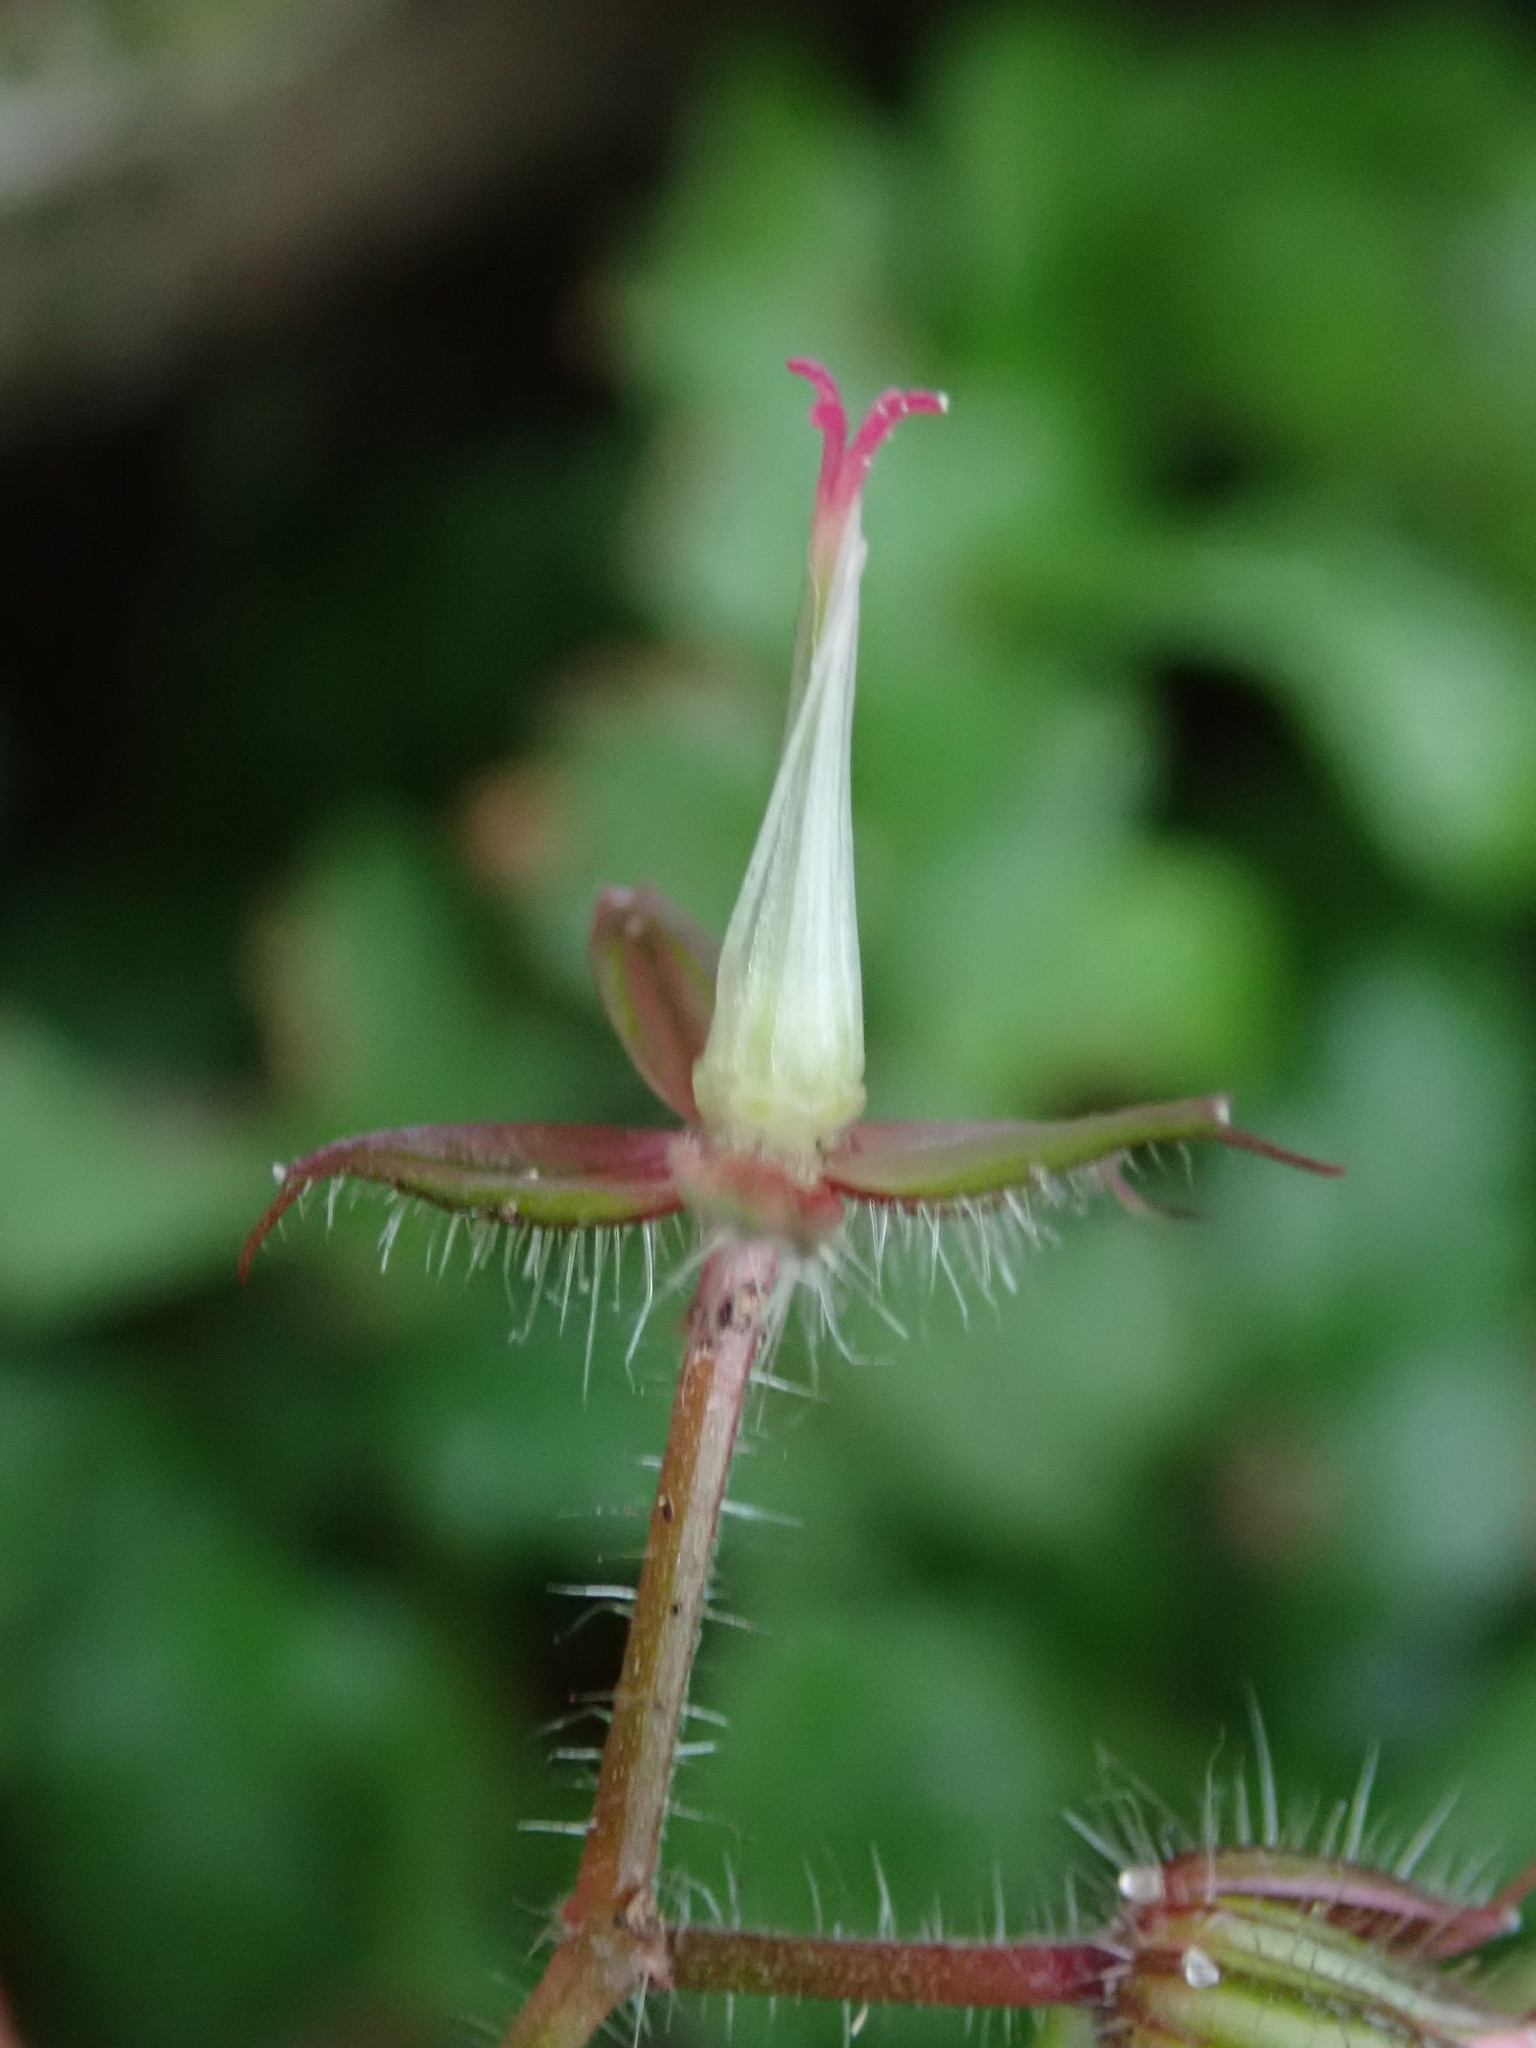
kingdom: Plantae
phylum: Tracheophyta
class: Magnoliopsida
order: Geraniales
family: Geraniaceae
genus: Geranium
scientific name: Geranium robertianum
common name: Herb-robert
